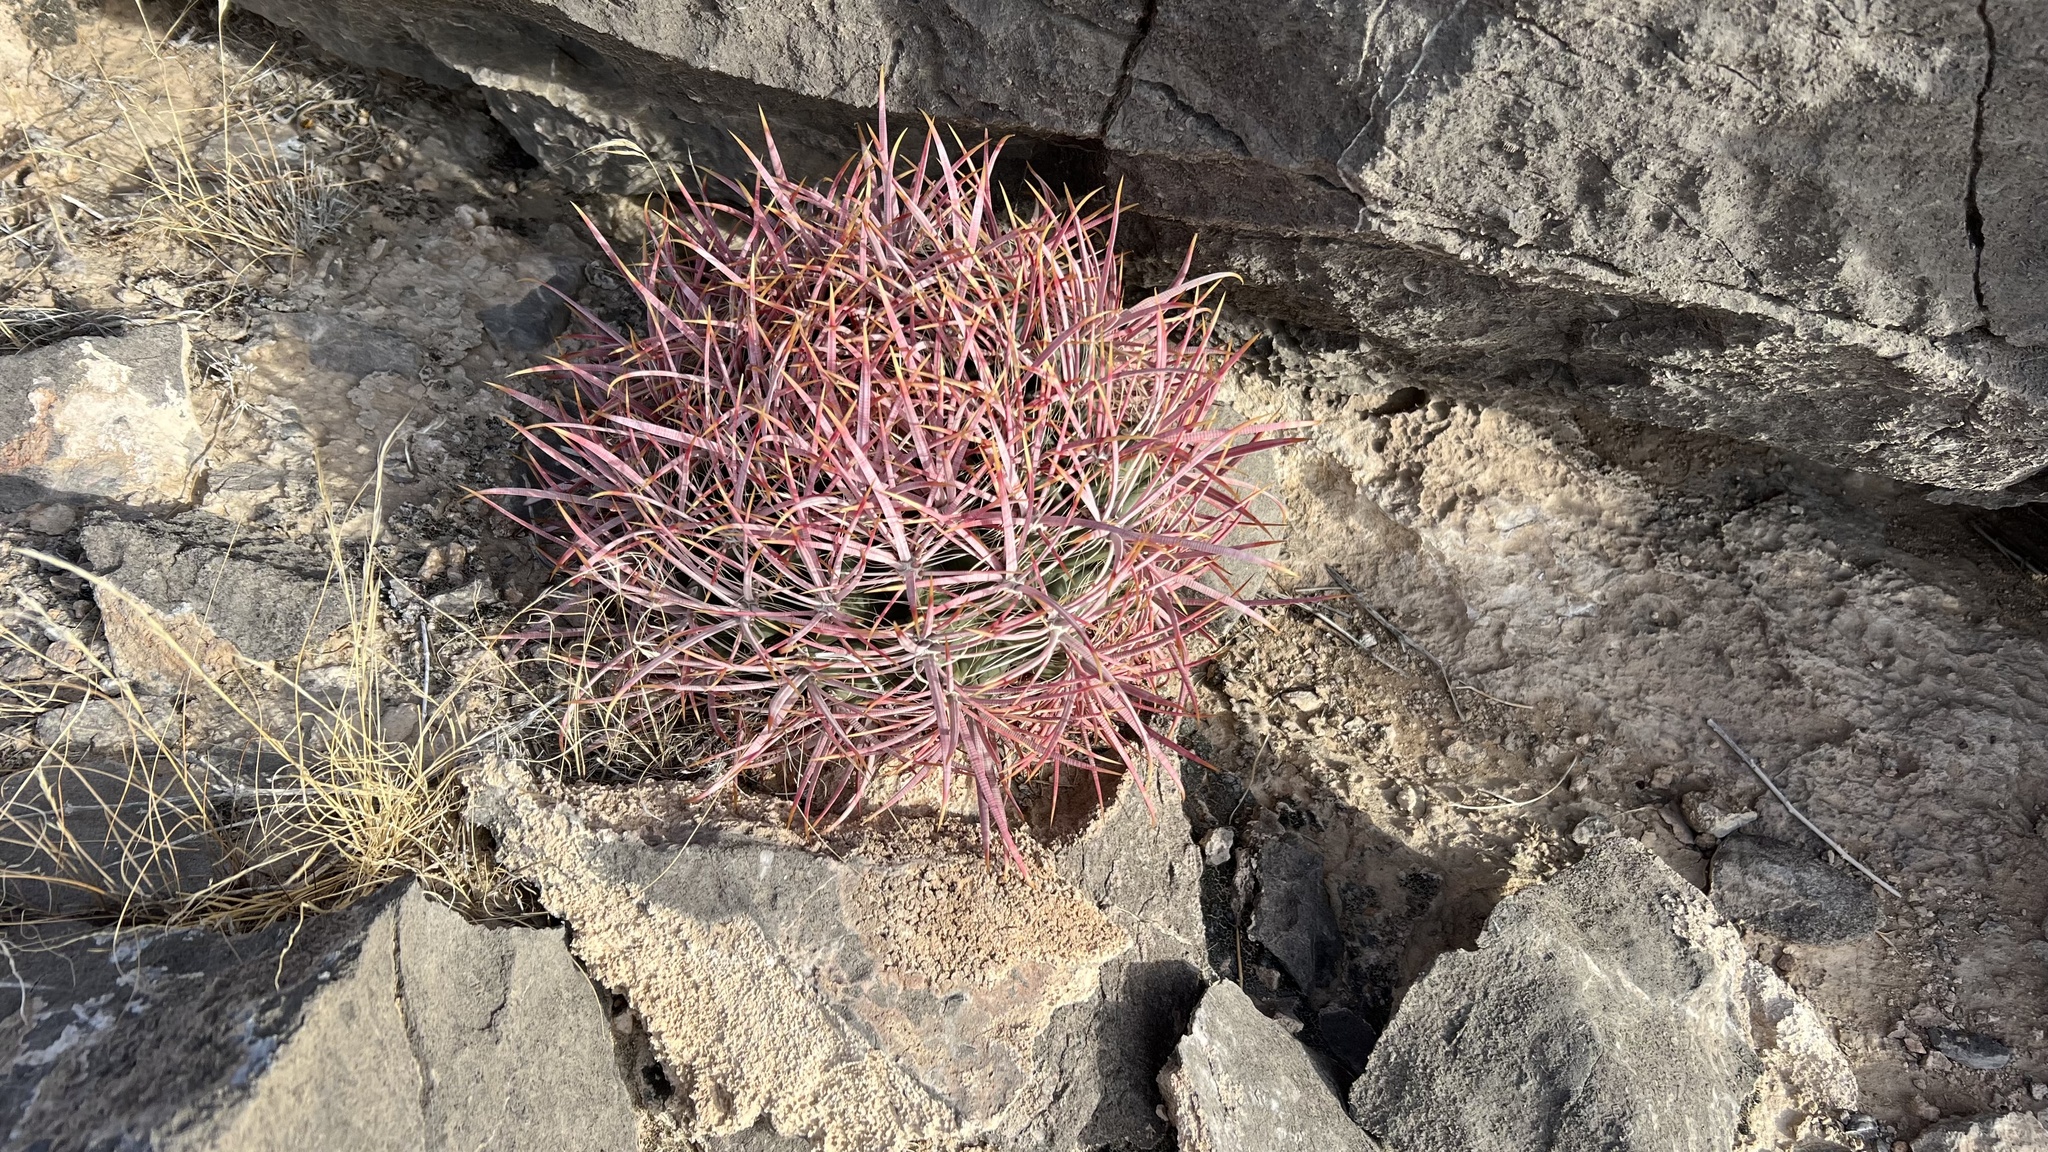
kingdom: Plantae
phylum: Tracheophyta
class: Magnoliopsida
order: Caryophyllales
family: Cactaceae
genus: Ferocactus
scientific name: Ferocactus cylindraceus
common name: California barrel cactus
